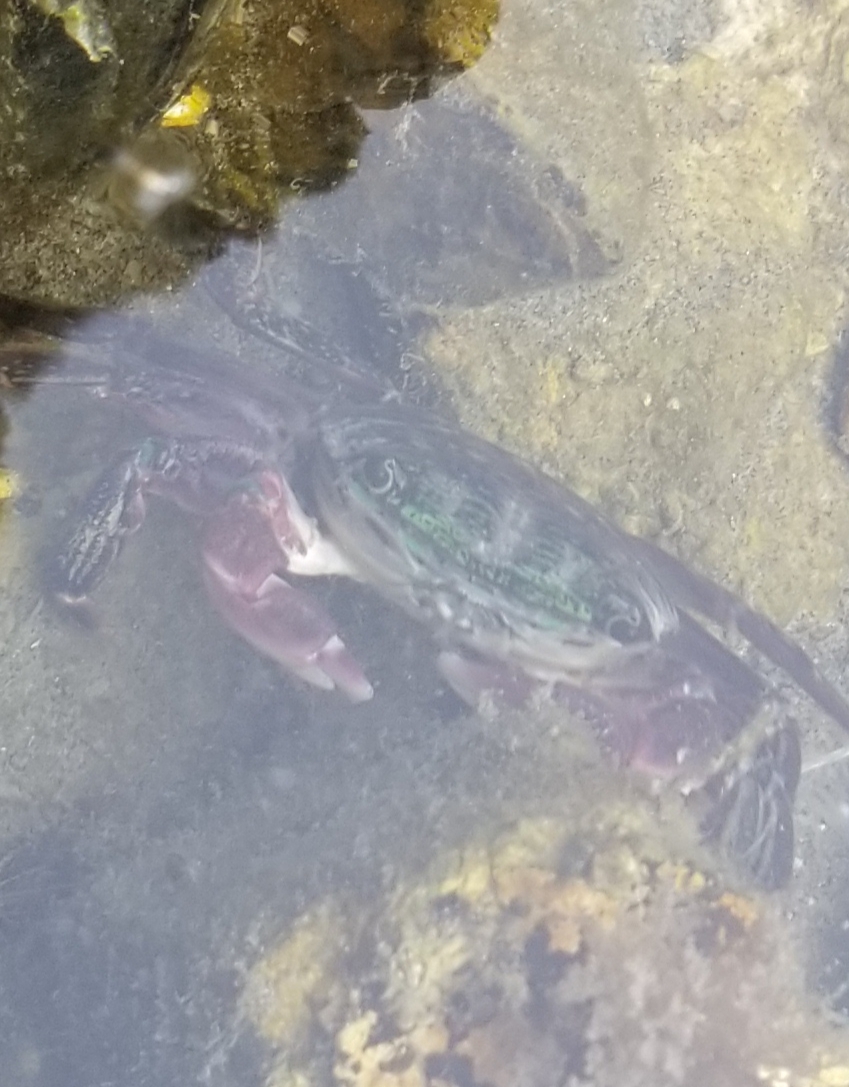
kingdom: Animalia
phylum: Arthropoda
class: Malacostraca
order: Decapoda
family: Grapsidae
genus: Pachygrapsus
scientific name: Pachygrapsus crassipes
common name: Striped shore crab
